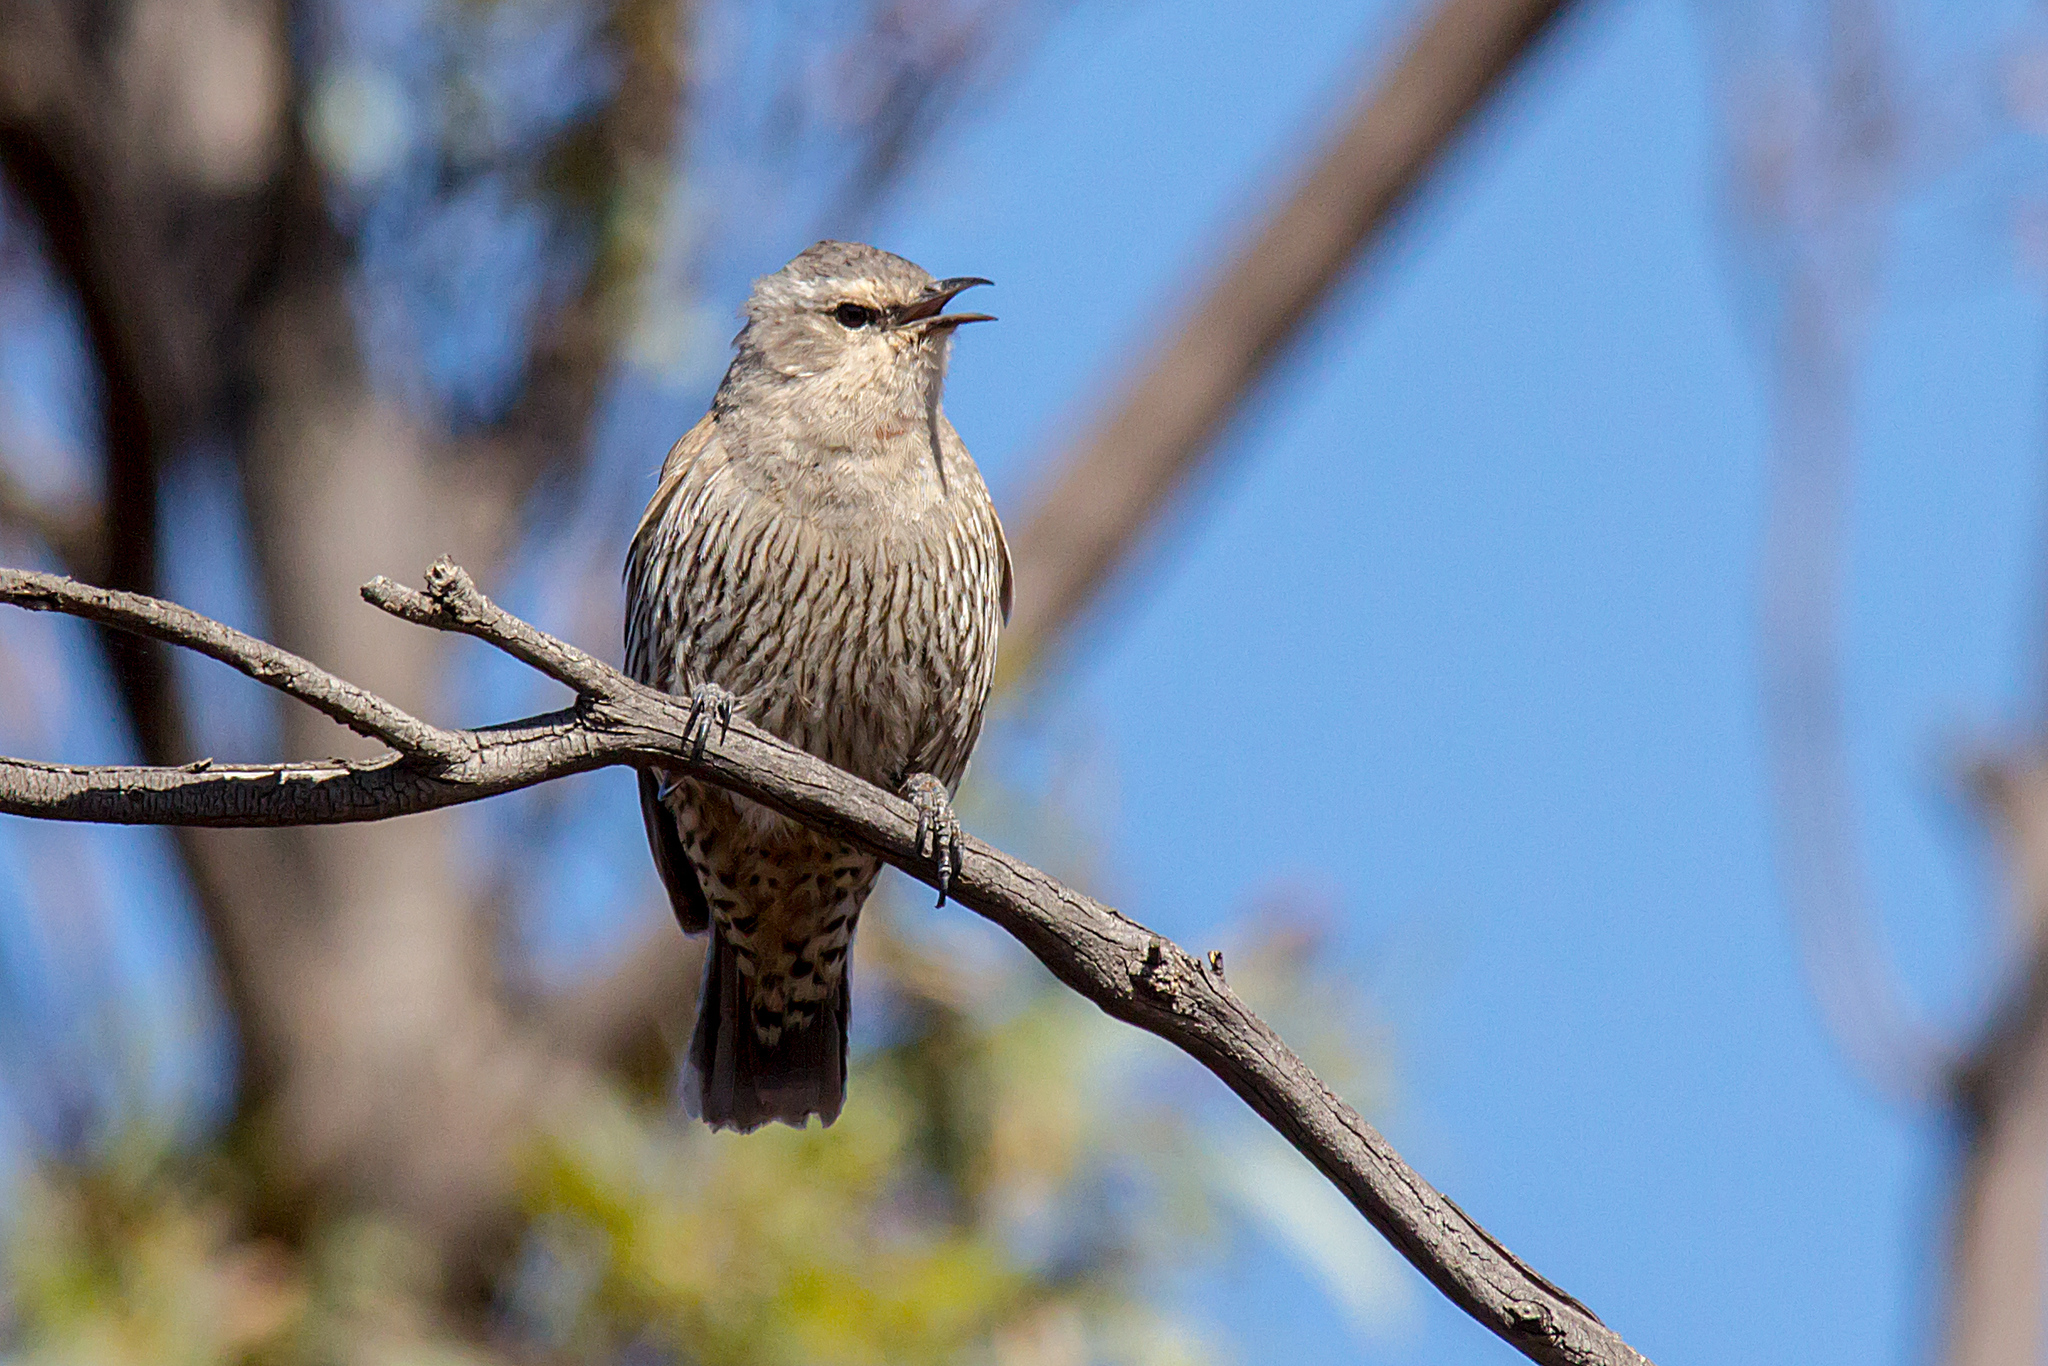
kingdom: Animalia
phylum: Chordata
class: Aves
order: Passeriformes
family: Climacteridae
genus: Climacteris
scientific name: Climacteris picumnus
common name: Brown treecreeper
